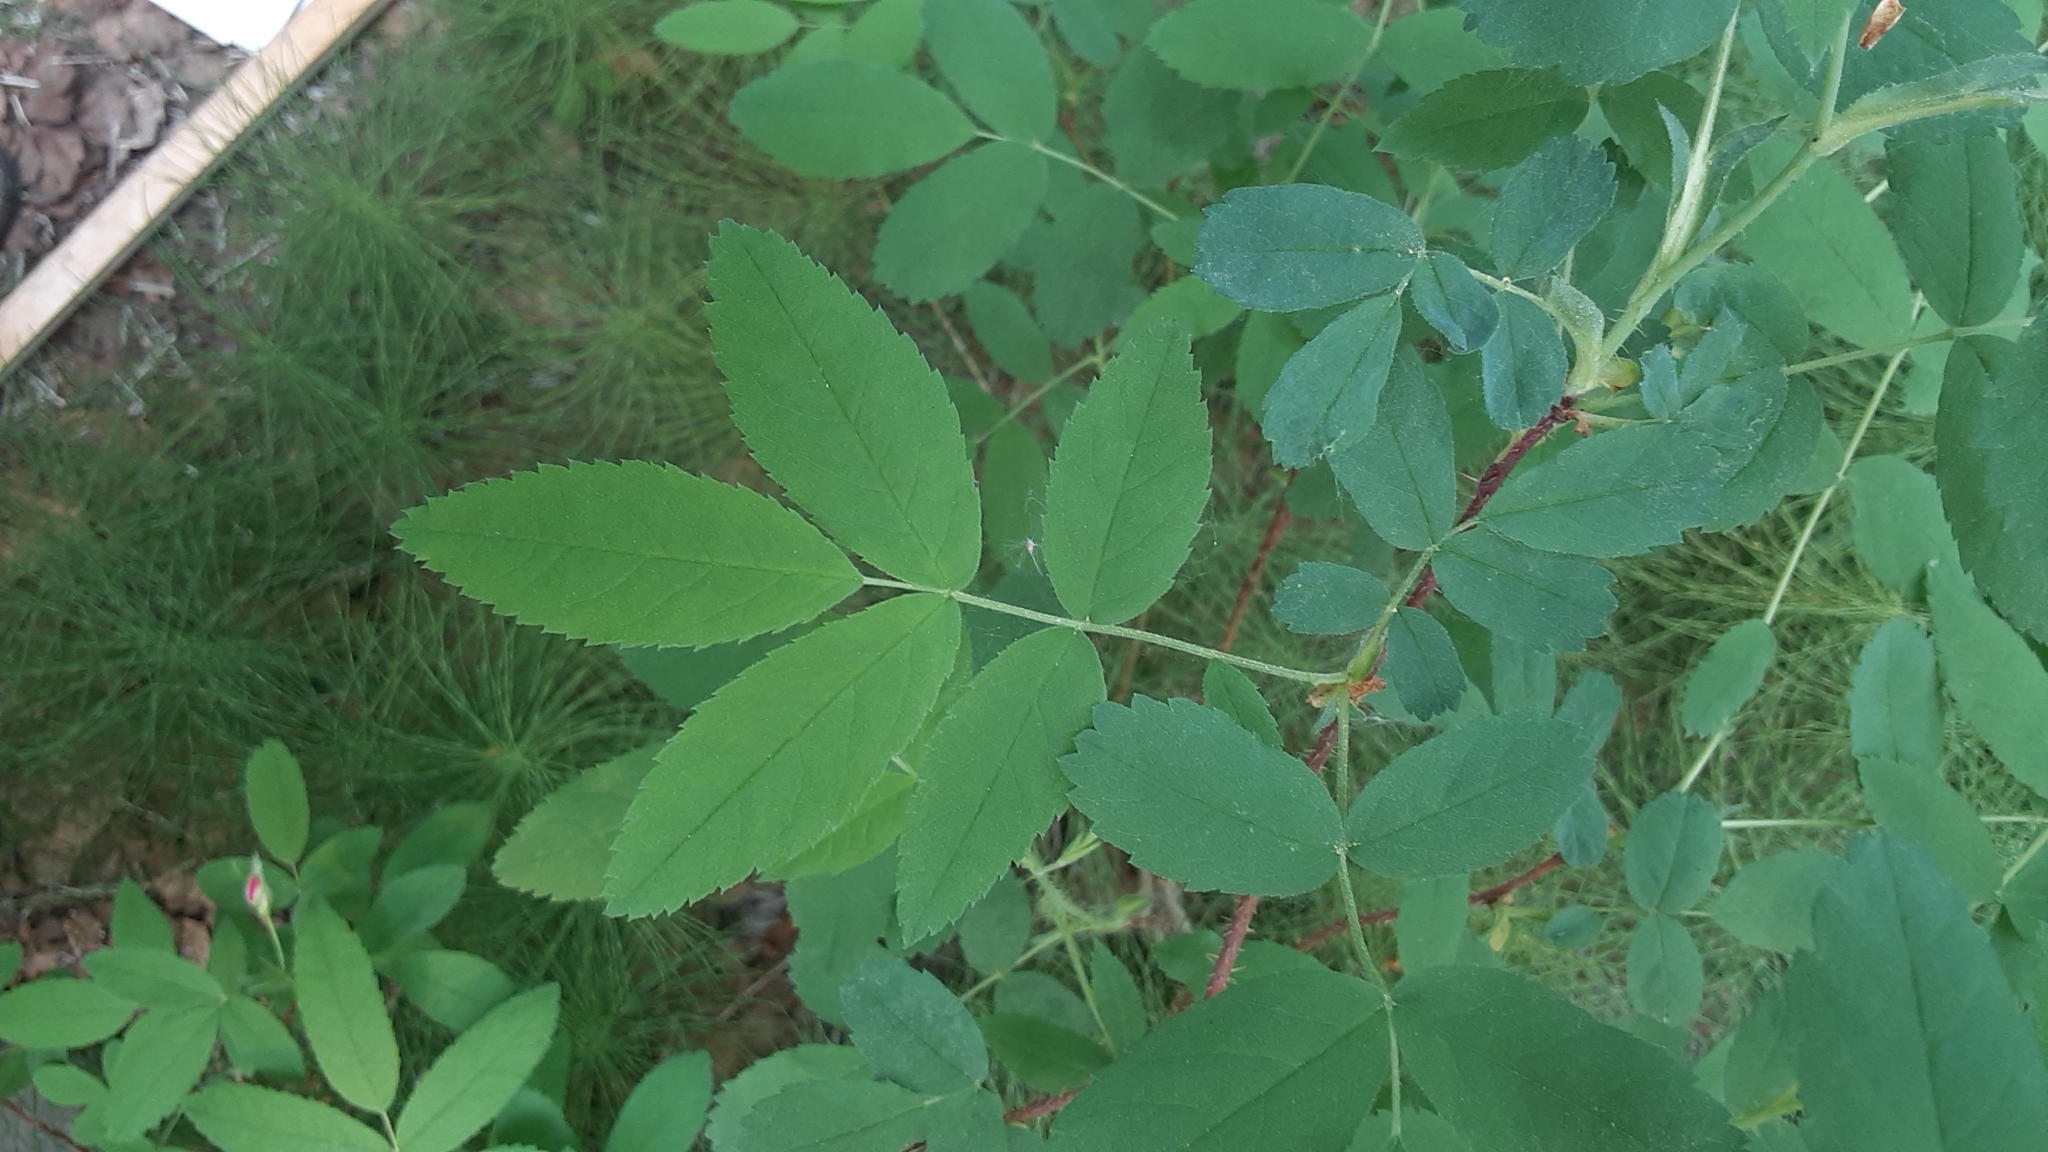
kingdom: Plantae
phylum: Tracheophyta
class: Magnoliopsida
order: Rosales
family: Rosaceae
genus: Rosa
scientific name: Rosa acicularis
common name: Prickly rose
